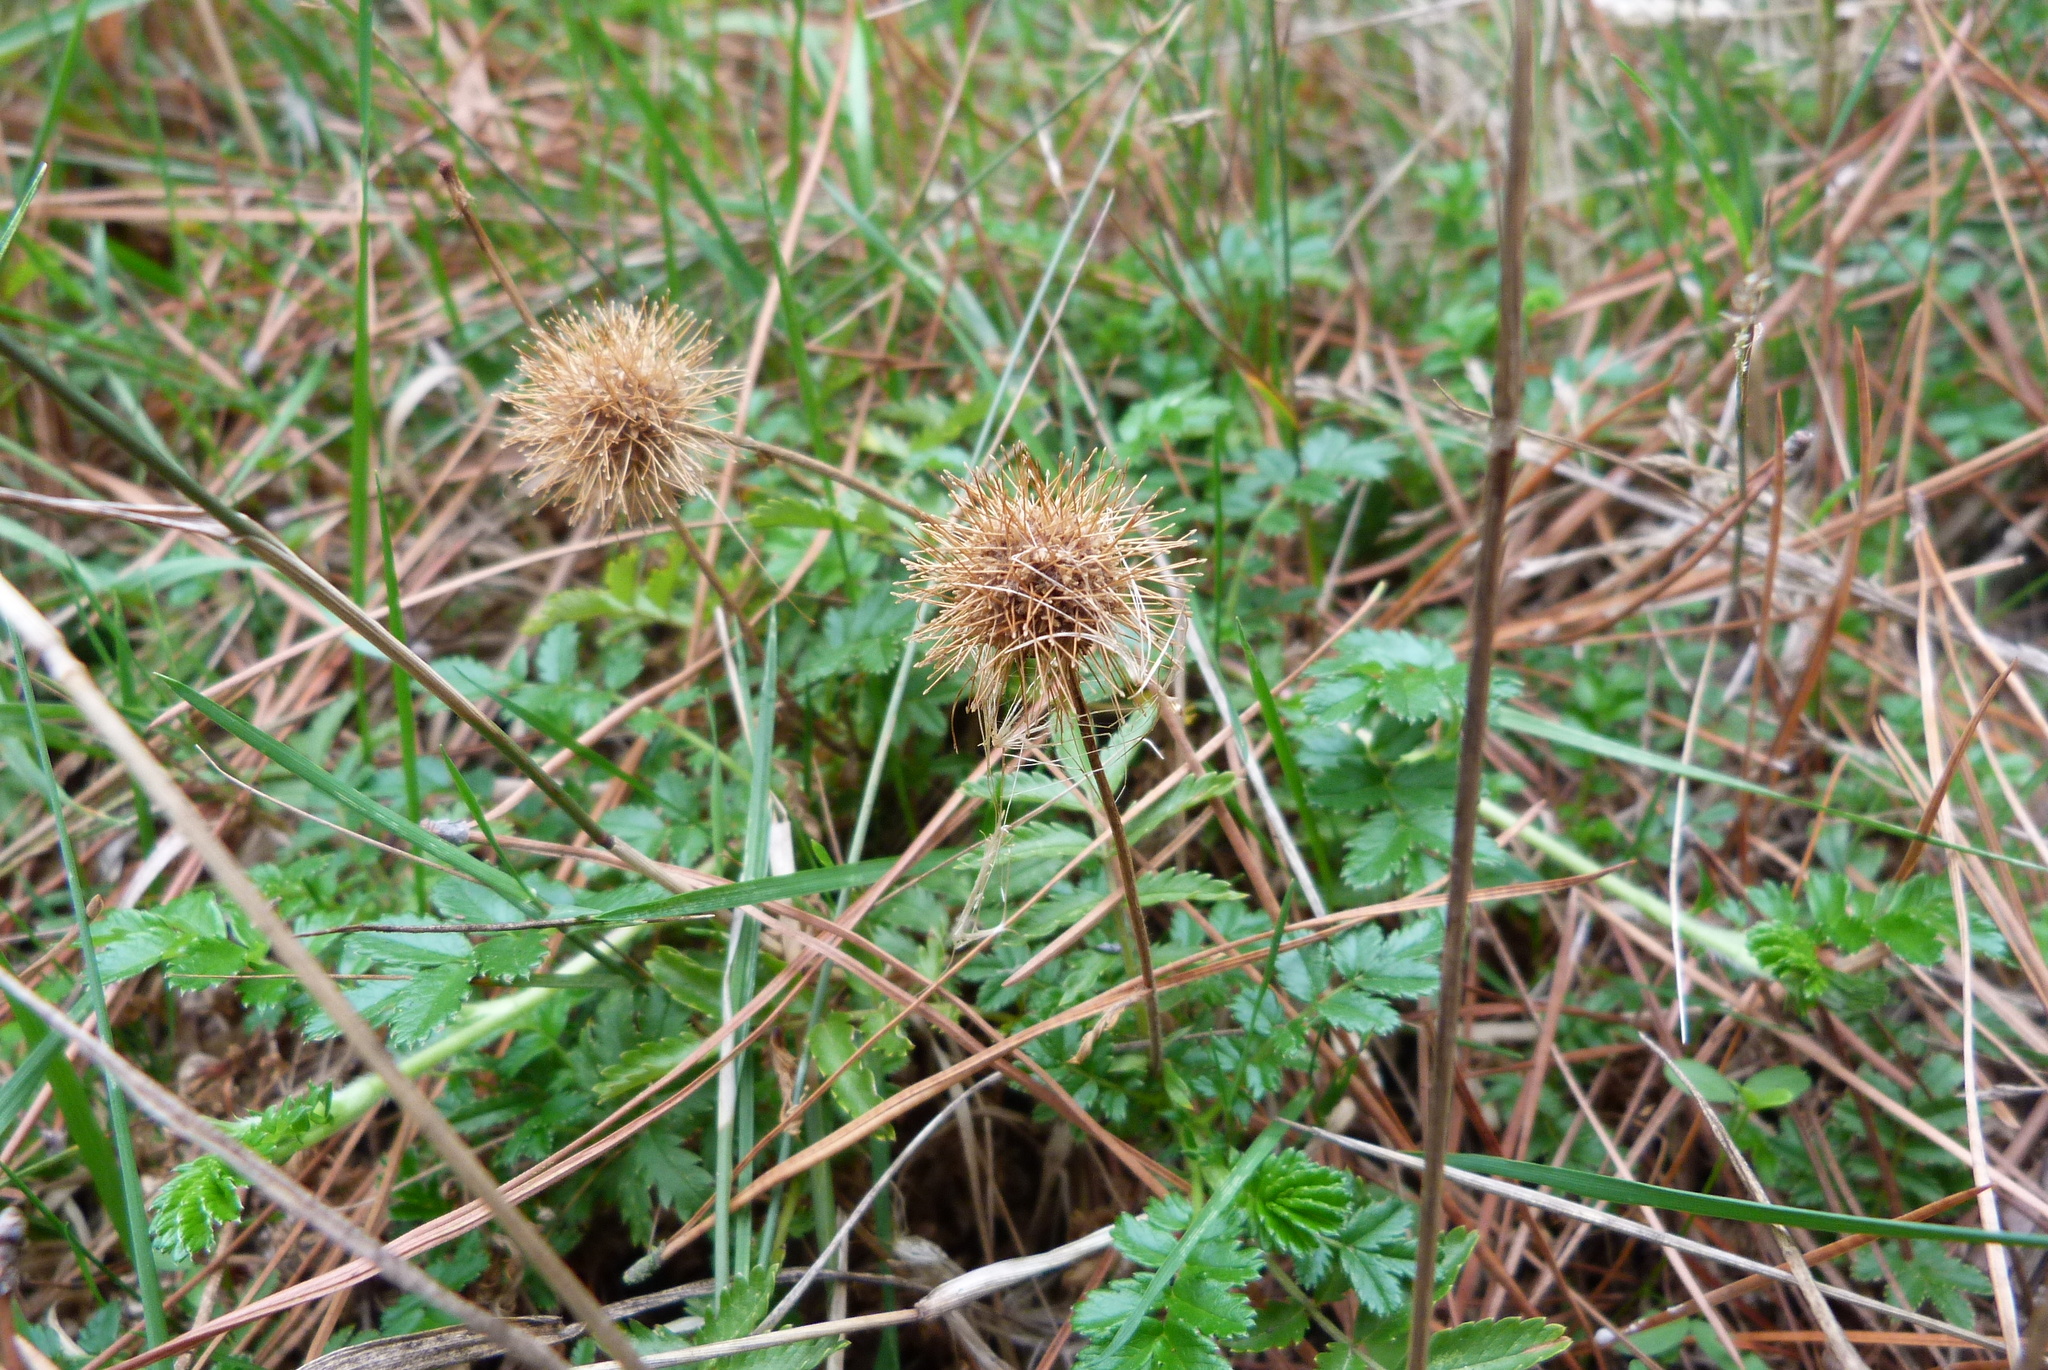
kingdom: Plantae
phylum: Tracheophyta
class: Magnoliopsida
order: Rosales
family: Rosaceae
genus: Acaena
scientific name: Acaena novae-zelandiae
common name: Pirri-pirri-bur
